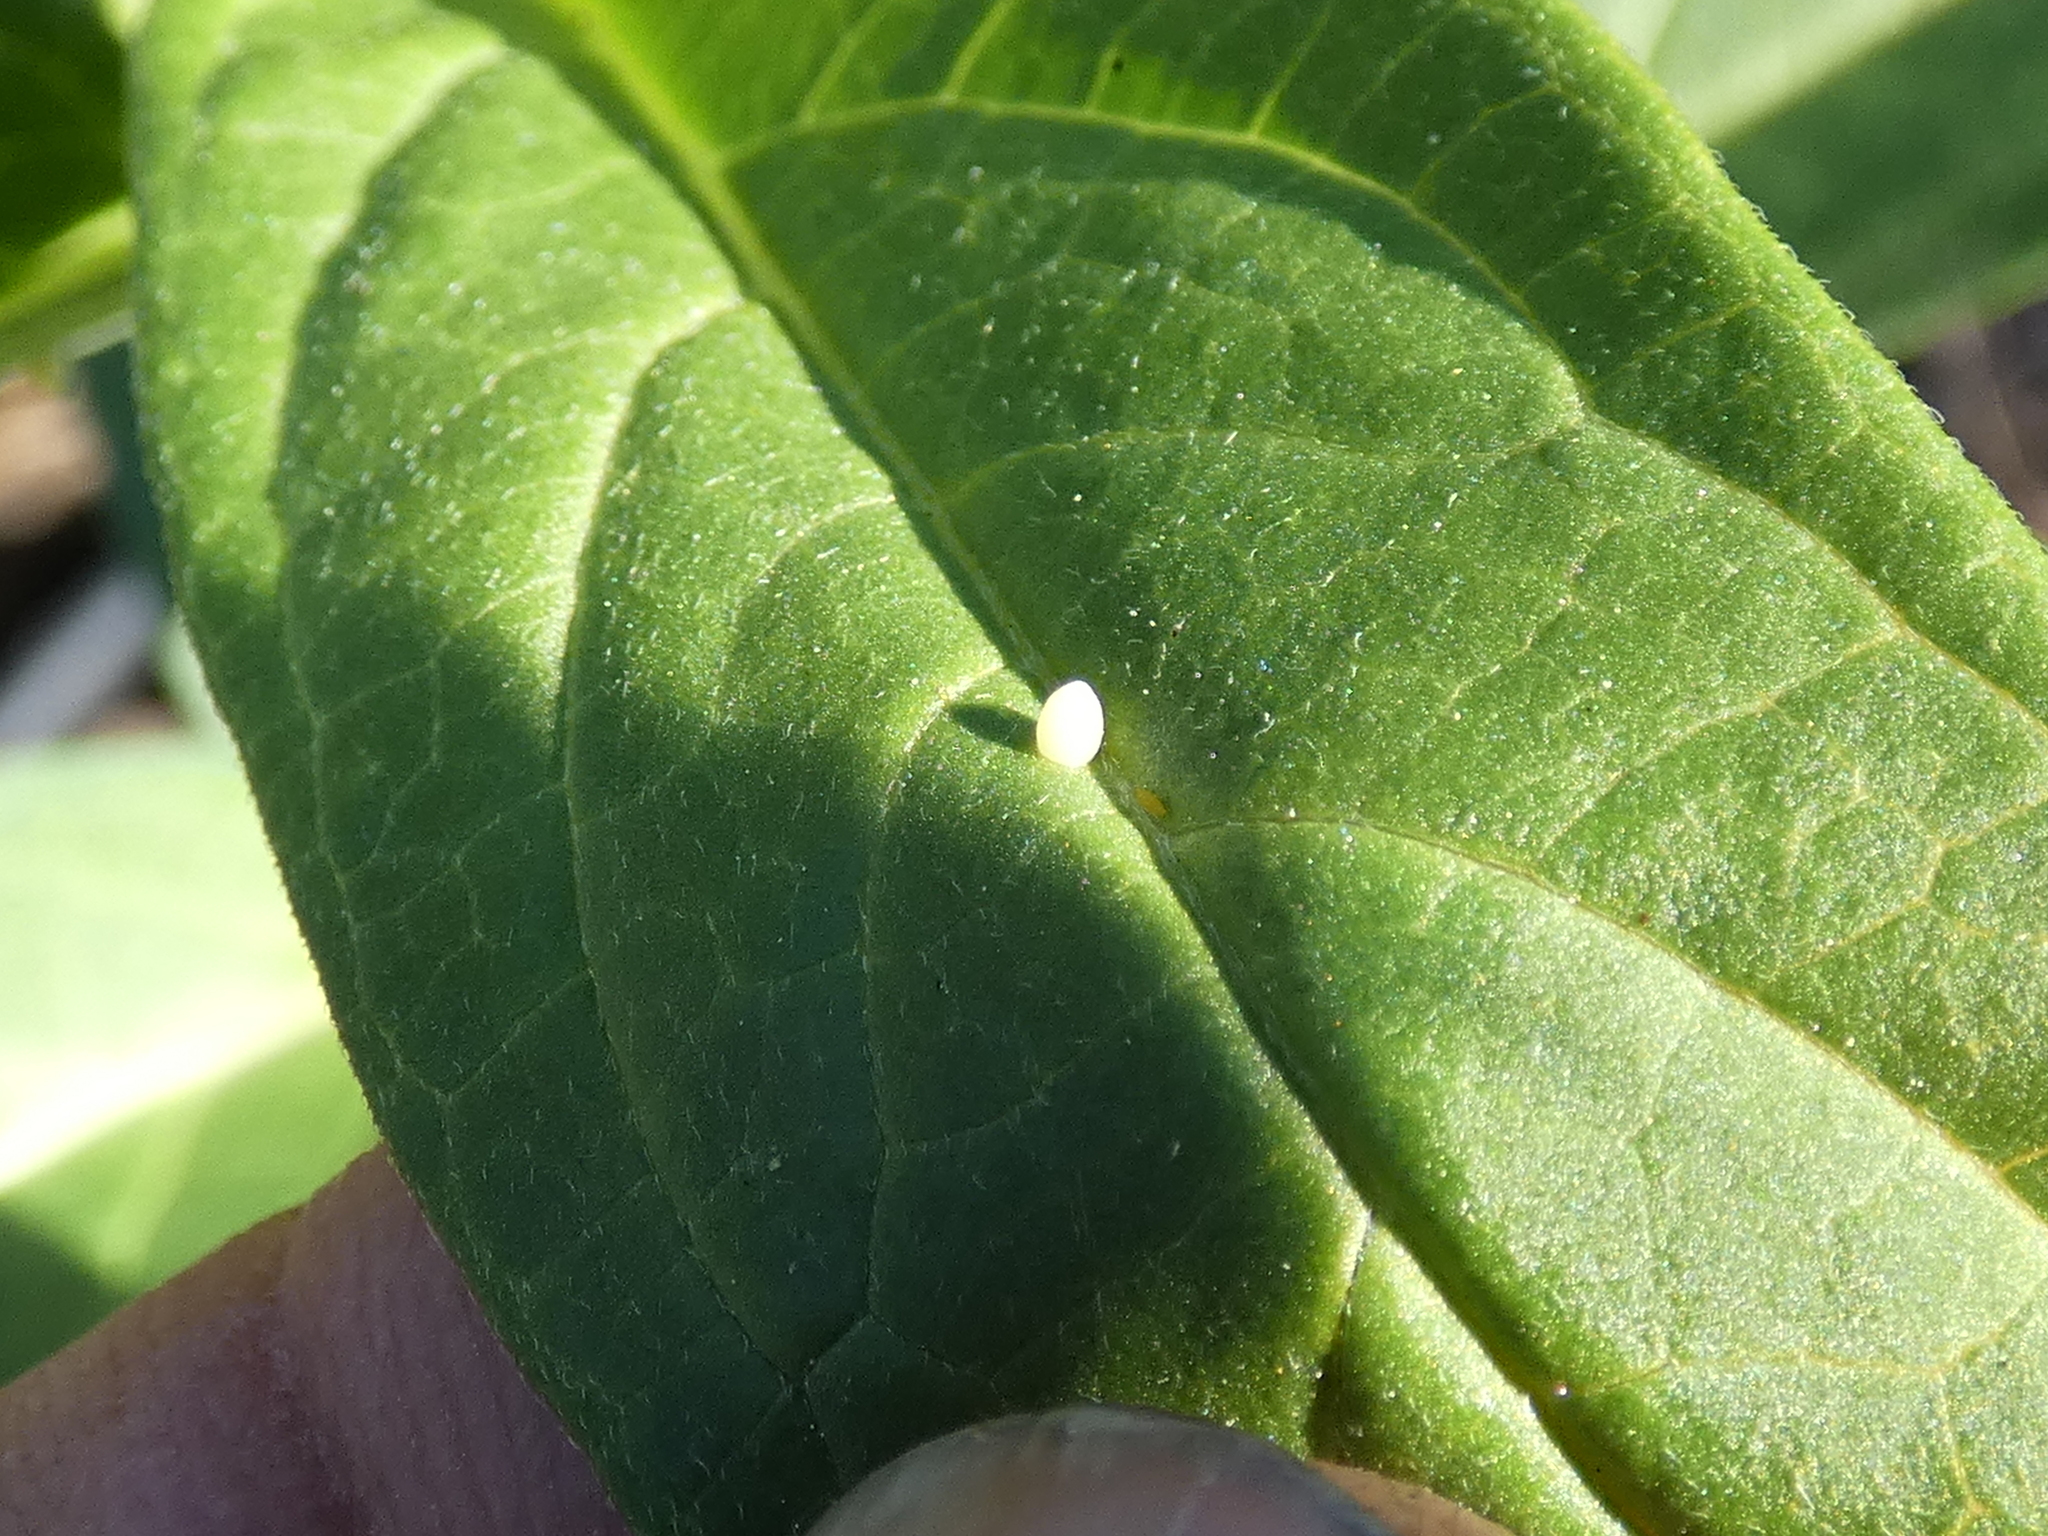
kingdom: Animalia
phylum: Arthropoda
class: Insecta
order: Lepidoptera
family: Nymphalidae
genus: Danaus
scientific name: Danaus plexippus
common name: Monarch
